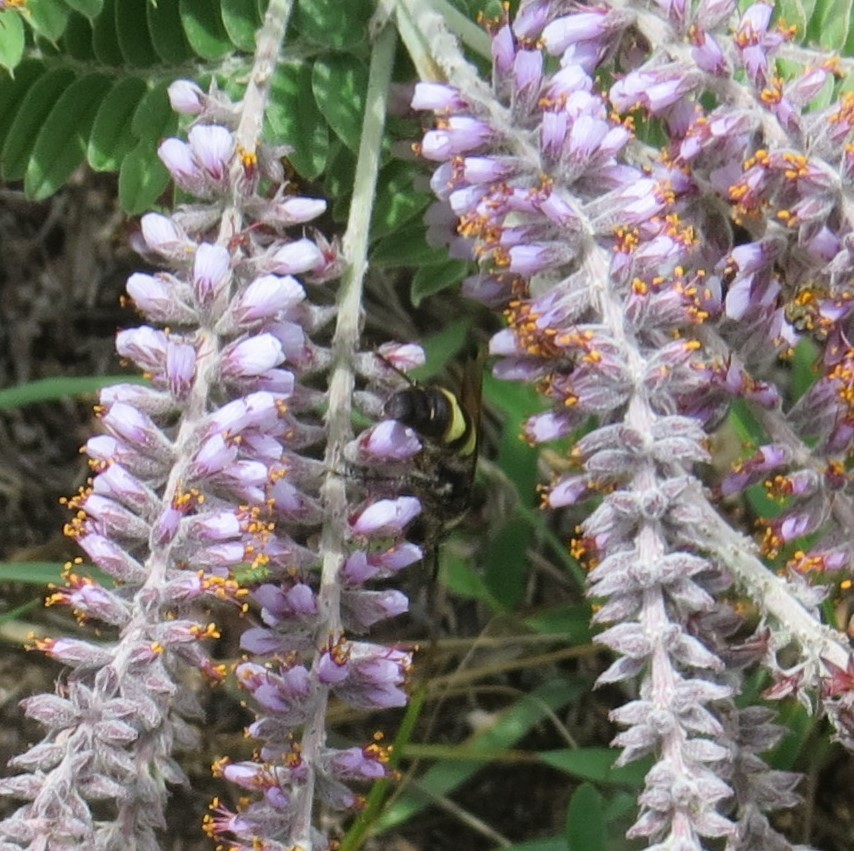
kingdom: Animalia
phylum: Arthropoda
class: Insecta
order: Hymenoptera
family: Scoliidae
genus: Dielis
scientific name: Dielis
